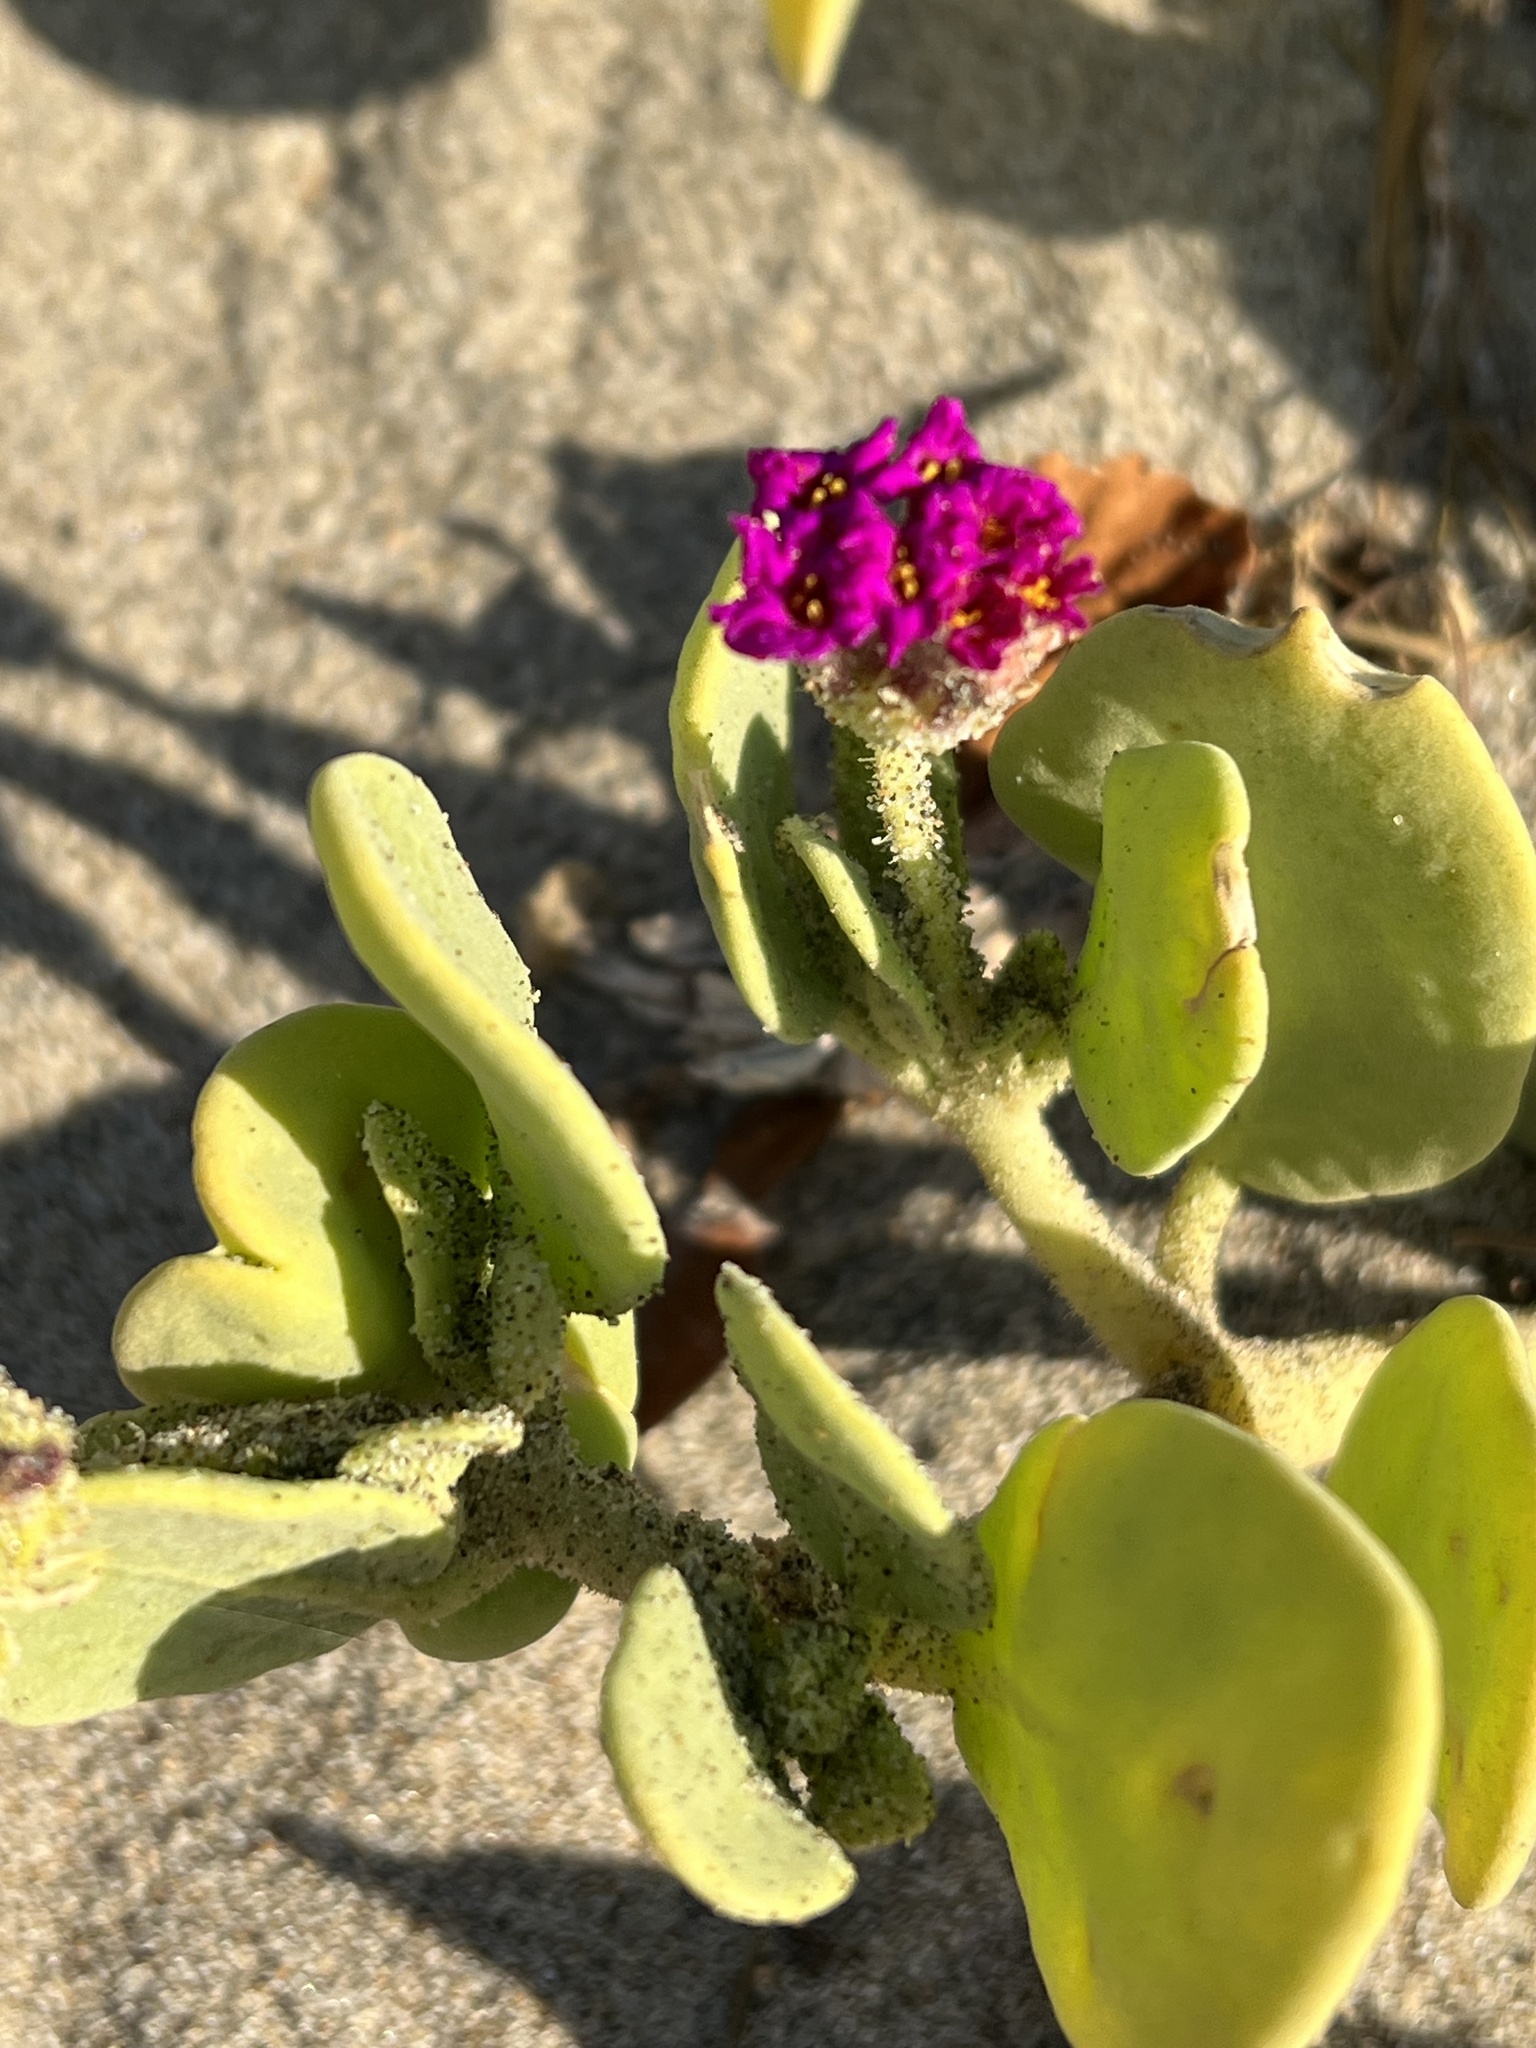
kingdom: Plantae
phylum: Tracheophyta
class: Magnoliopsida
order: Caryophyllales
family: Nyctaginaceae
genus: Abronia
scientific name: Abronia maritima
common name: Red sand-verbena
